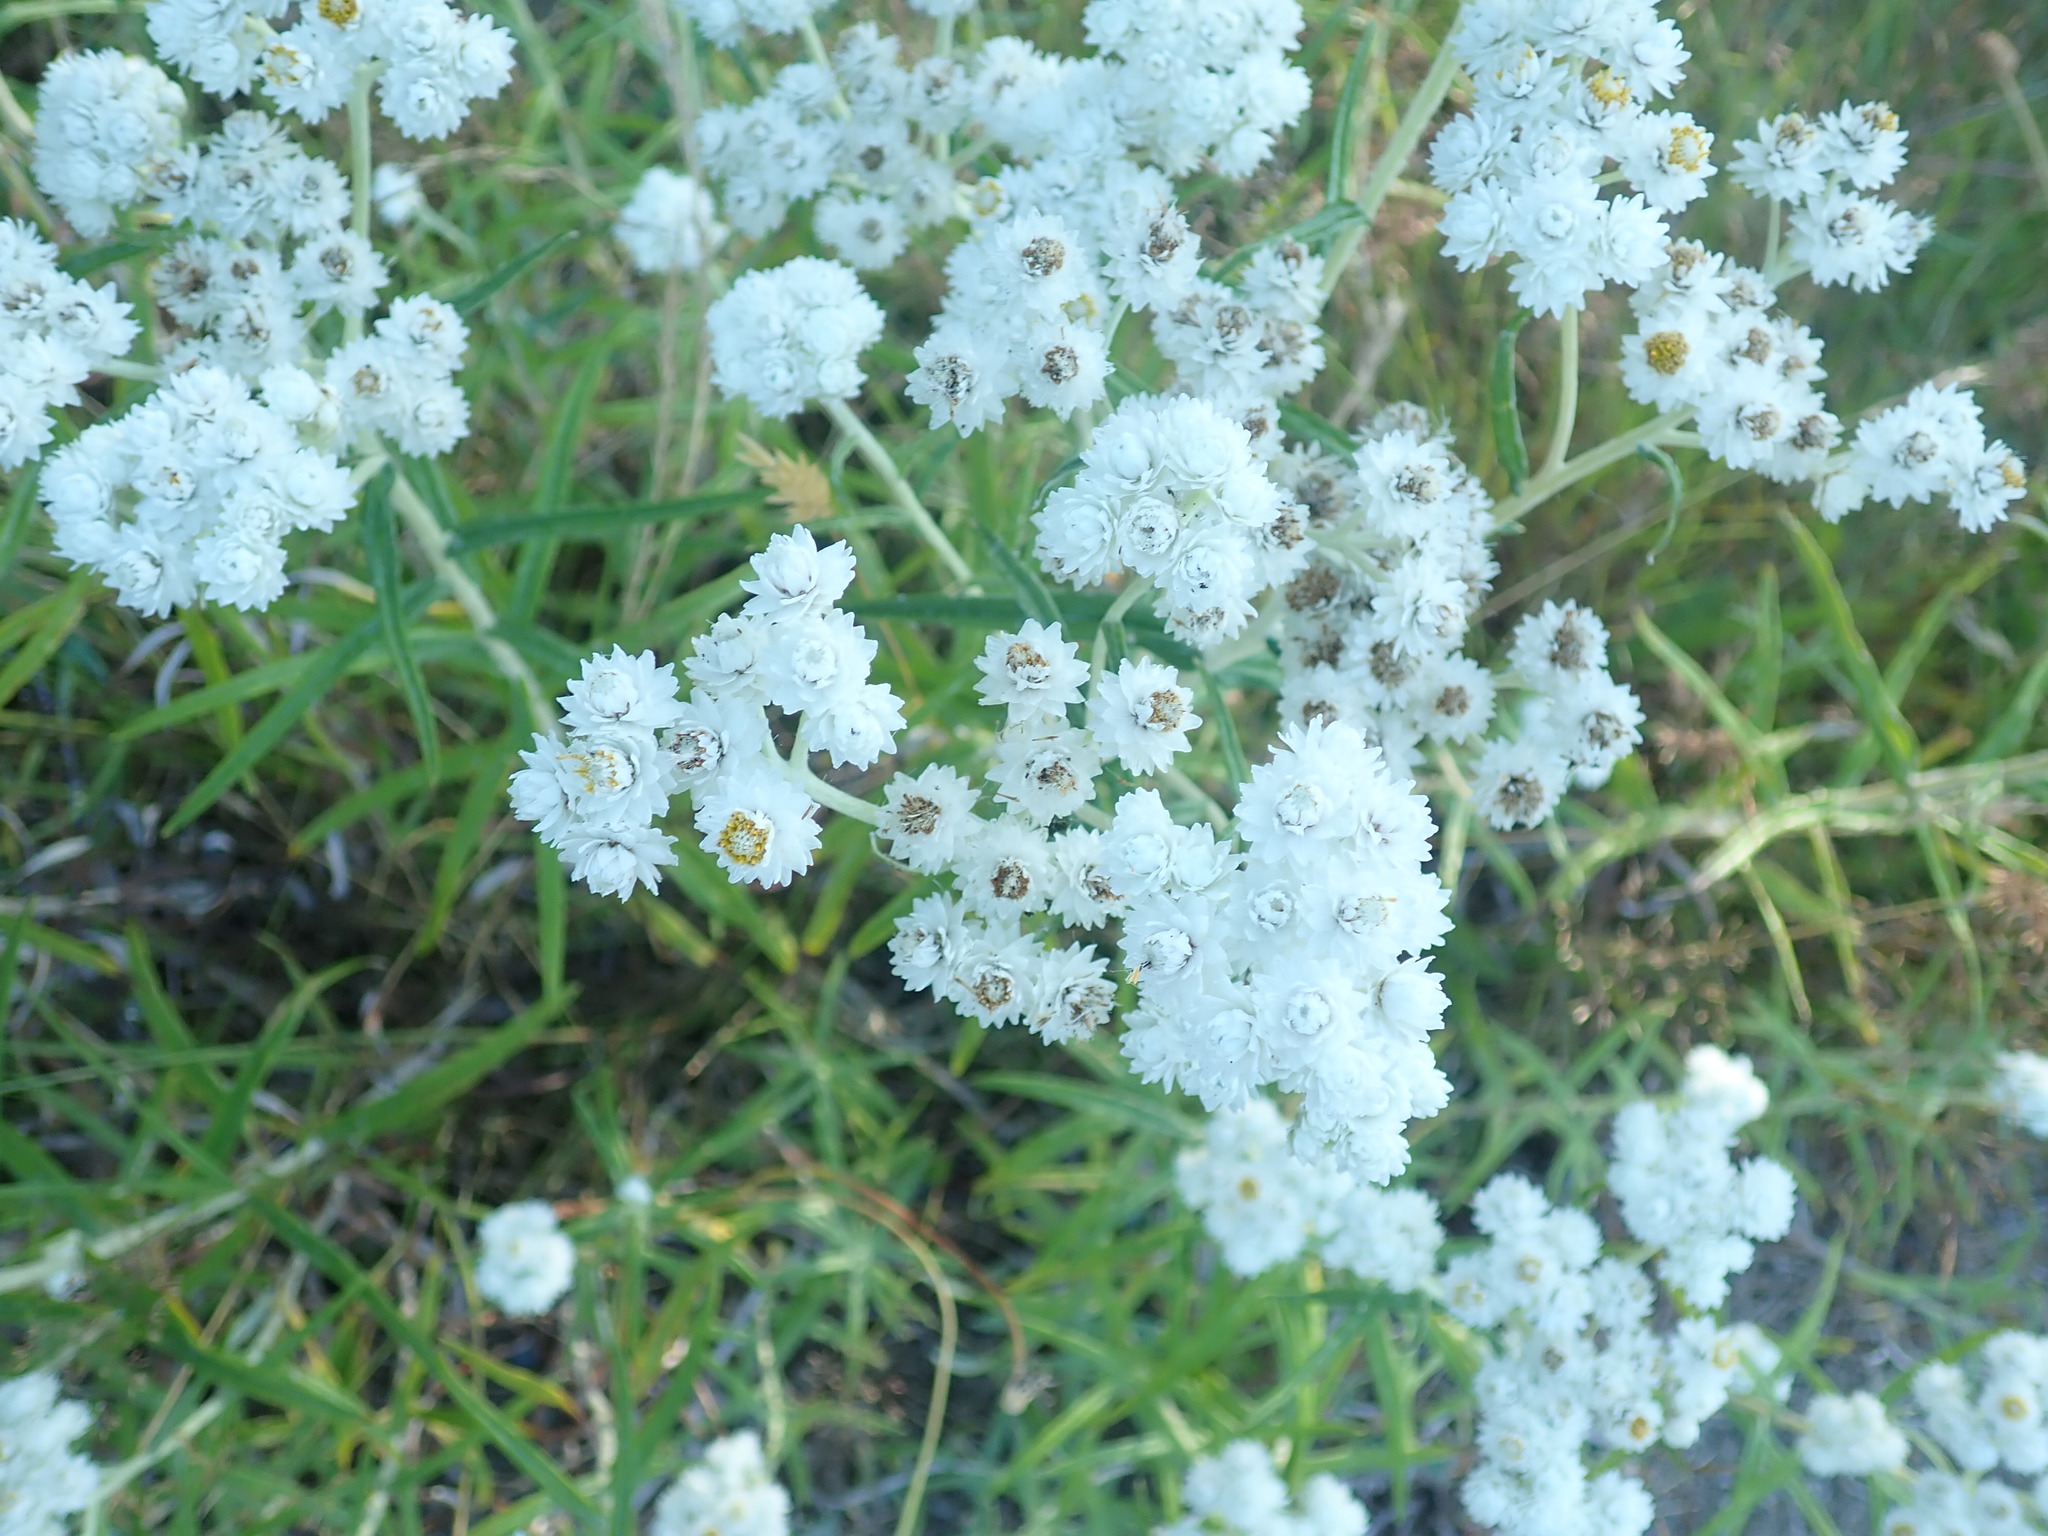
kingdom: Plantae
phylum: Tracheophyta
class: Magnoliopsida
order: Asterales
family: Asteraceae
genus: Anaphalis
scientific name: Anaphalis margaritacea
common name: Pearly everlasting
